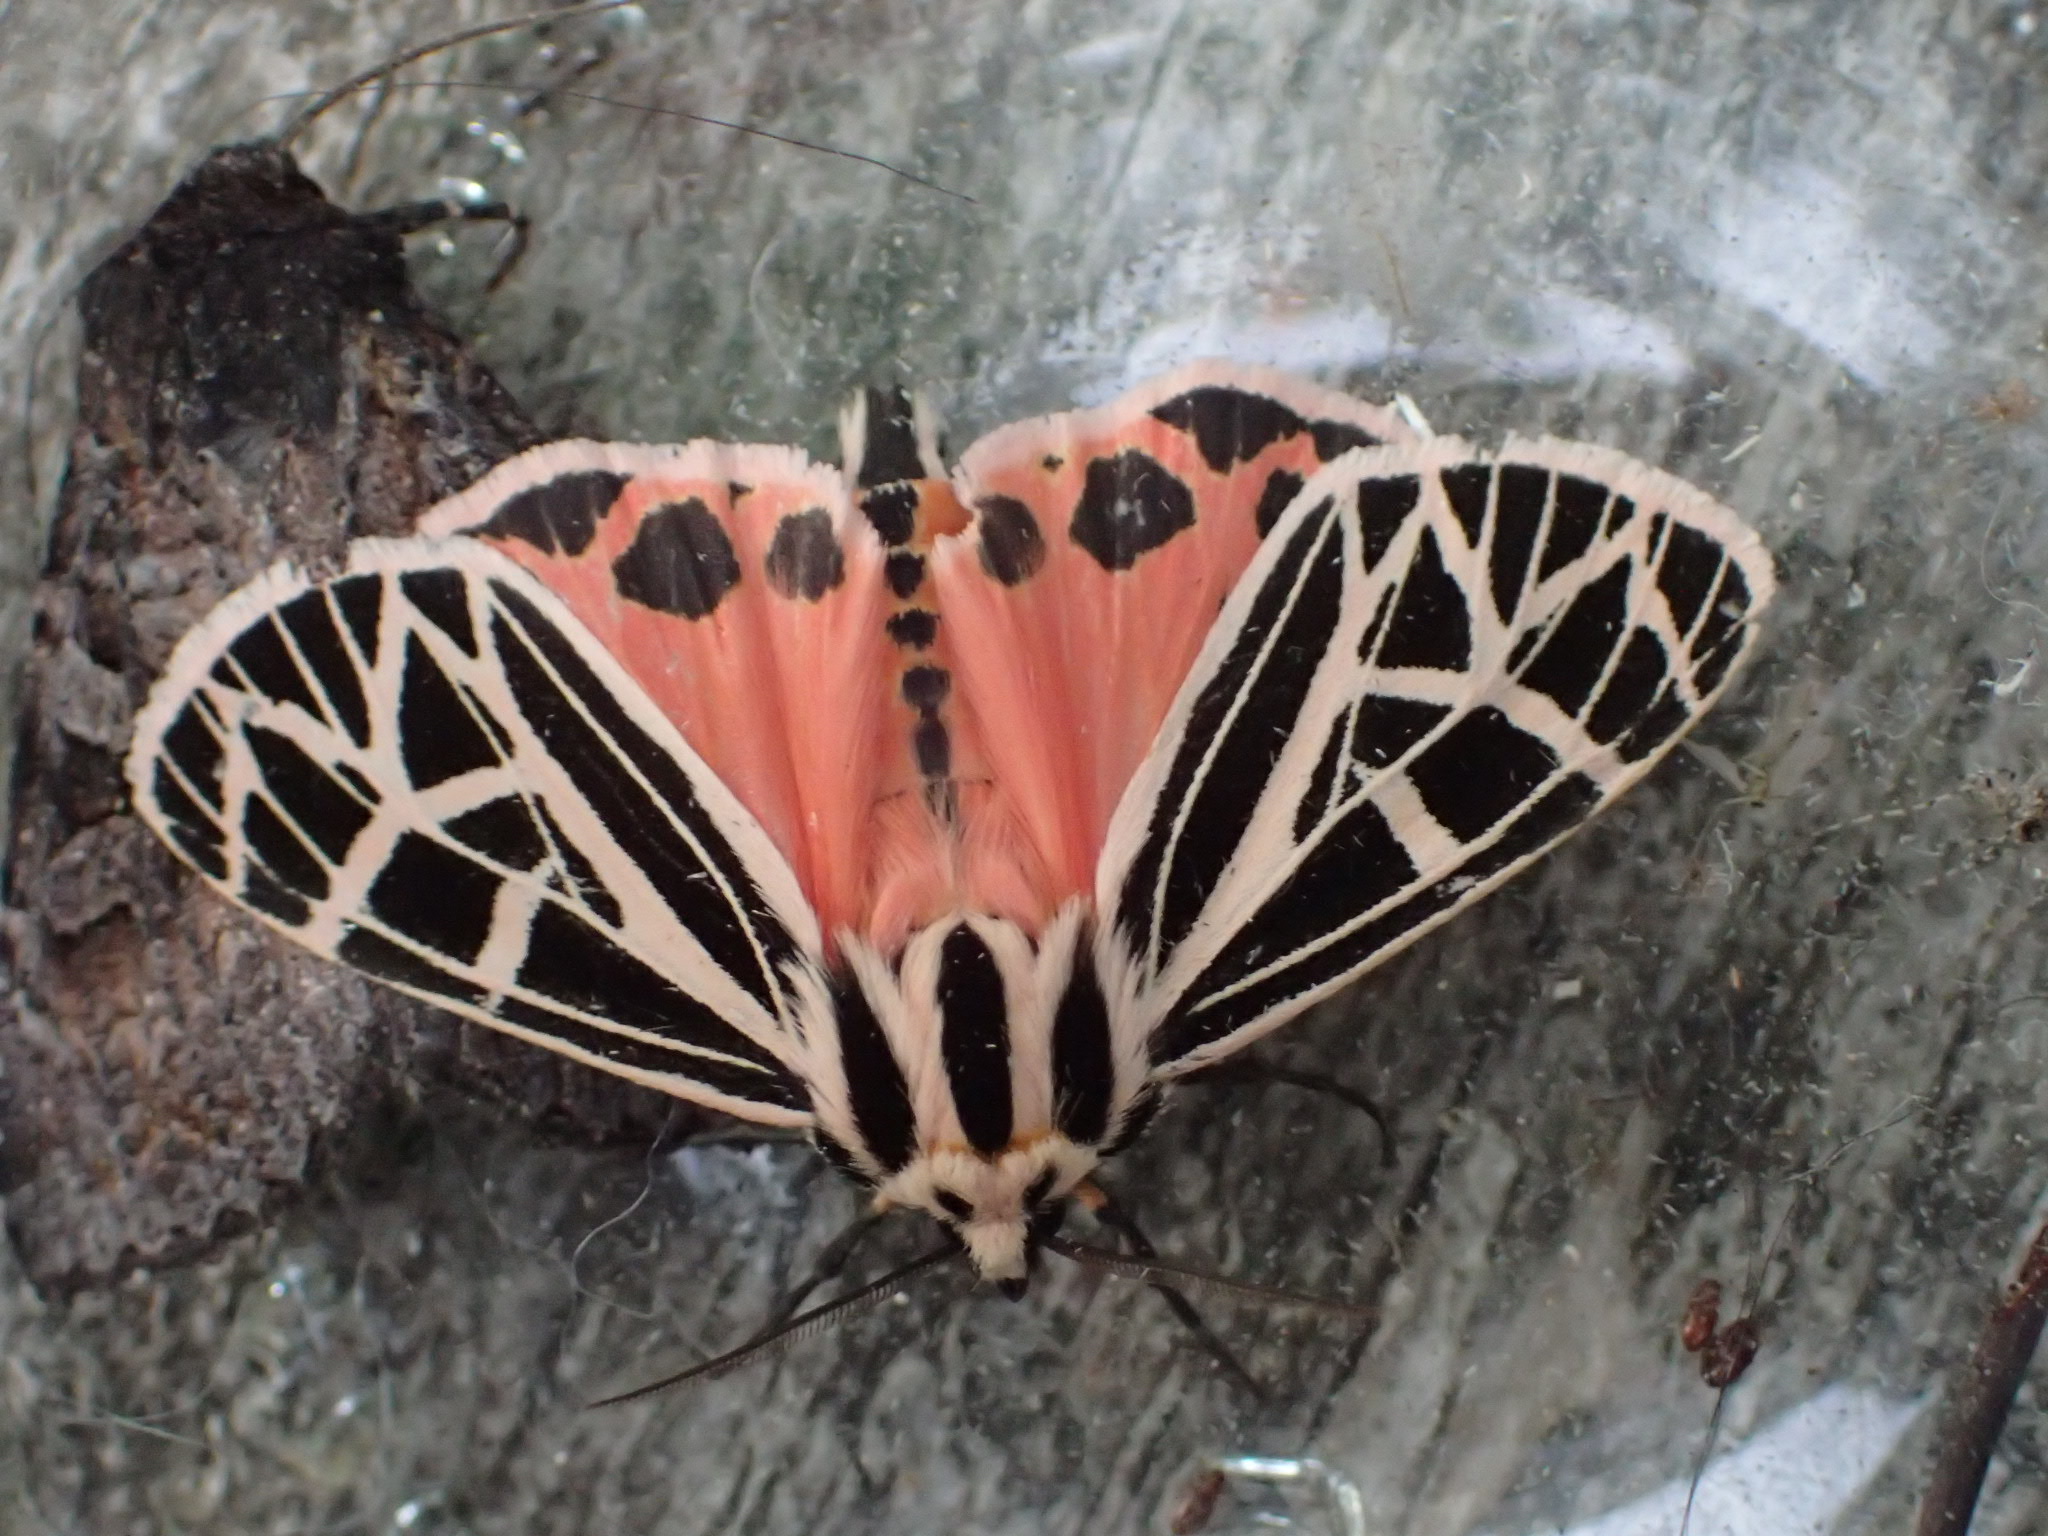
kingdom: Animalia
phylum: Arthropoda
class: Insecta
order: Lepidoptera
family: Erebidae
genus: Grammia
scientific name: Grammia parthenice
